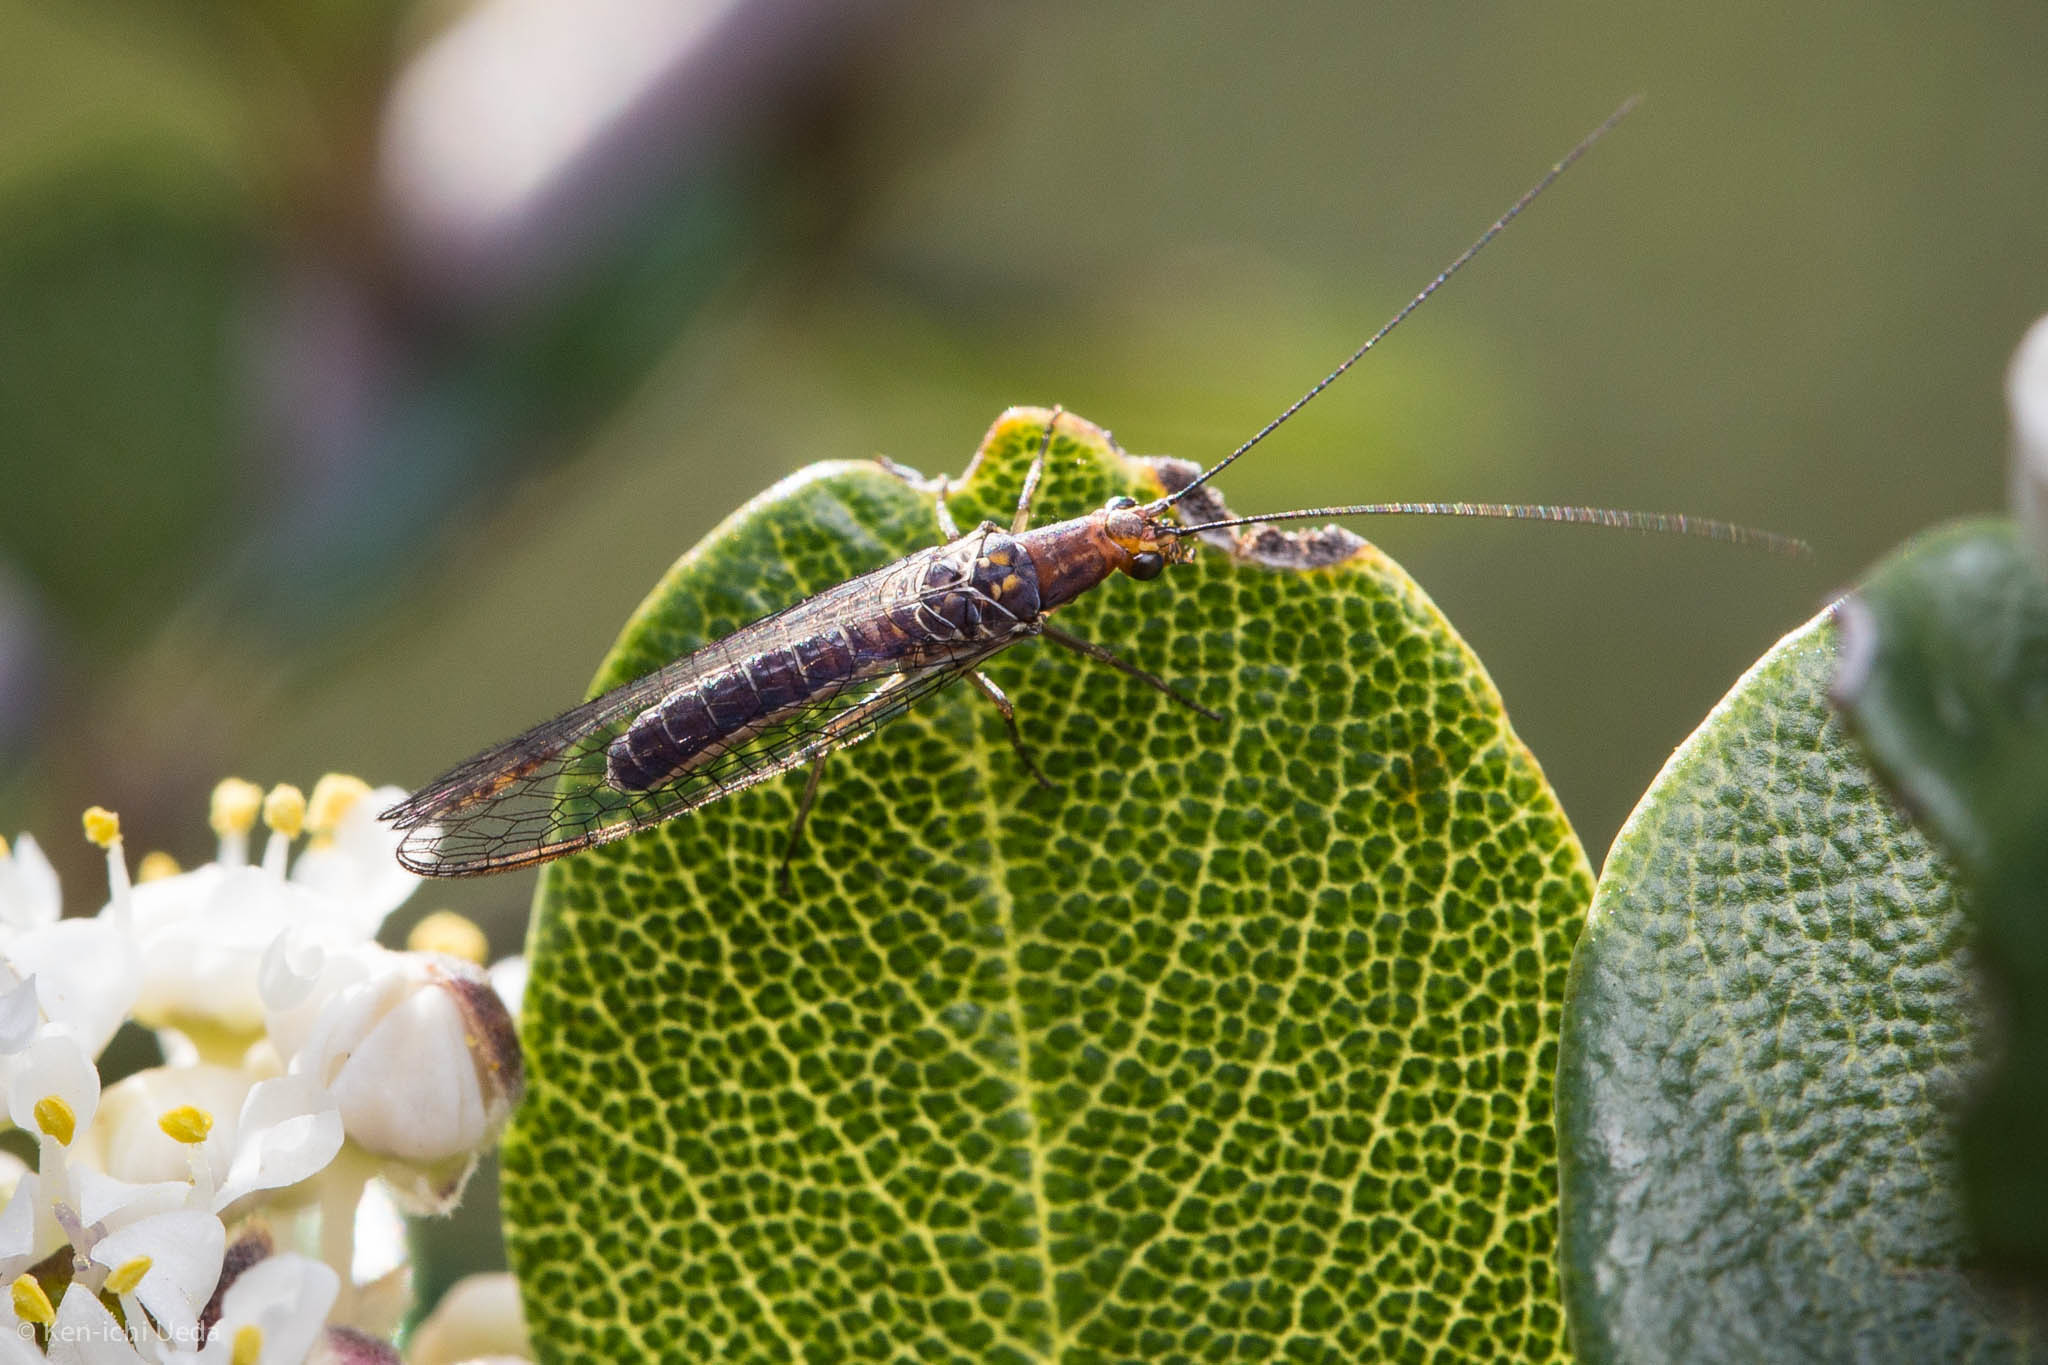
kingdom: Animalia
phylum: Arthropoda
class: Insecta
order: Neuroptera
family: Chrysopidae
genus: Nothochrysa
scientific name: Nothochrysa californica
